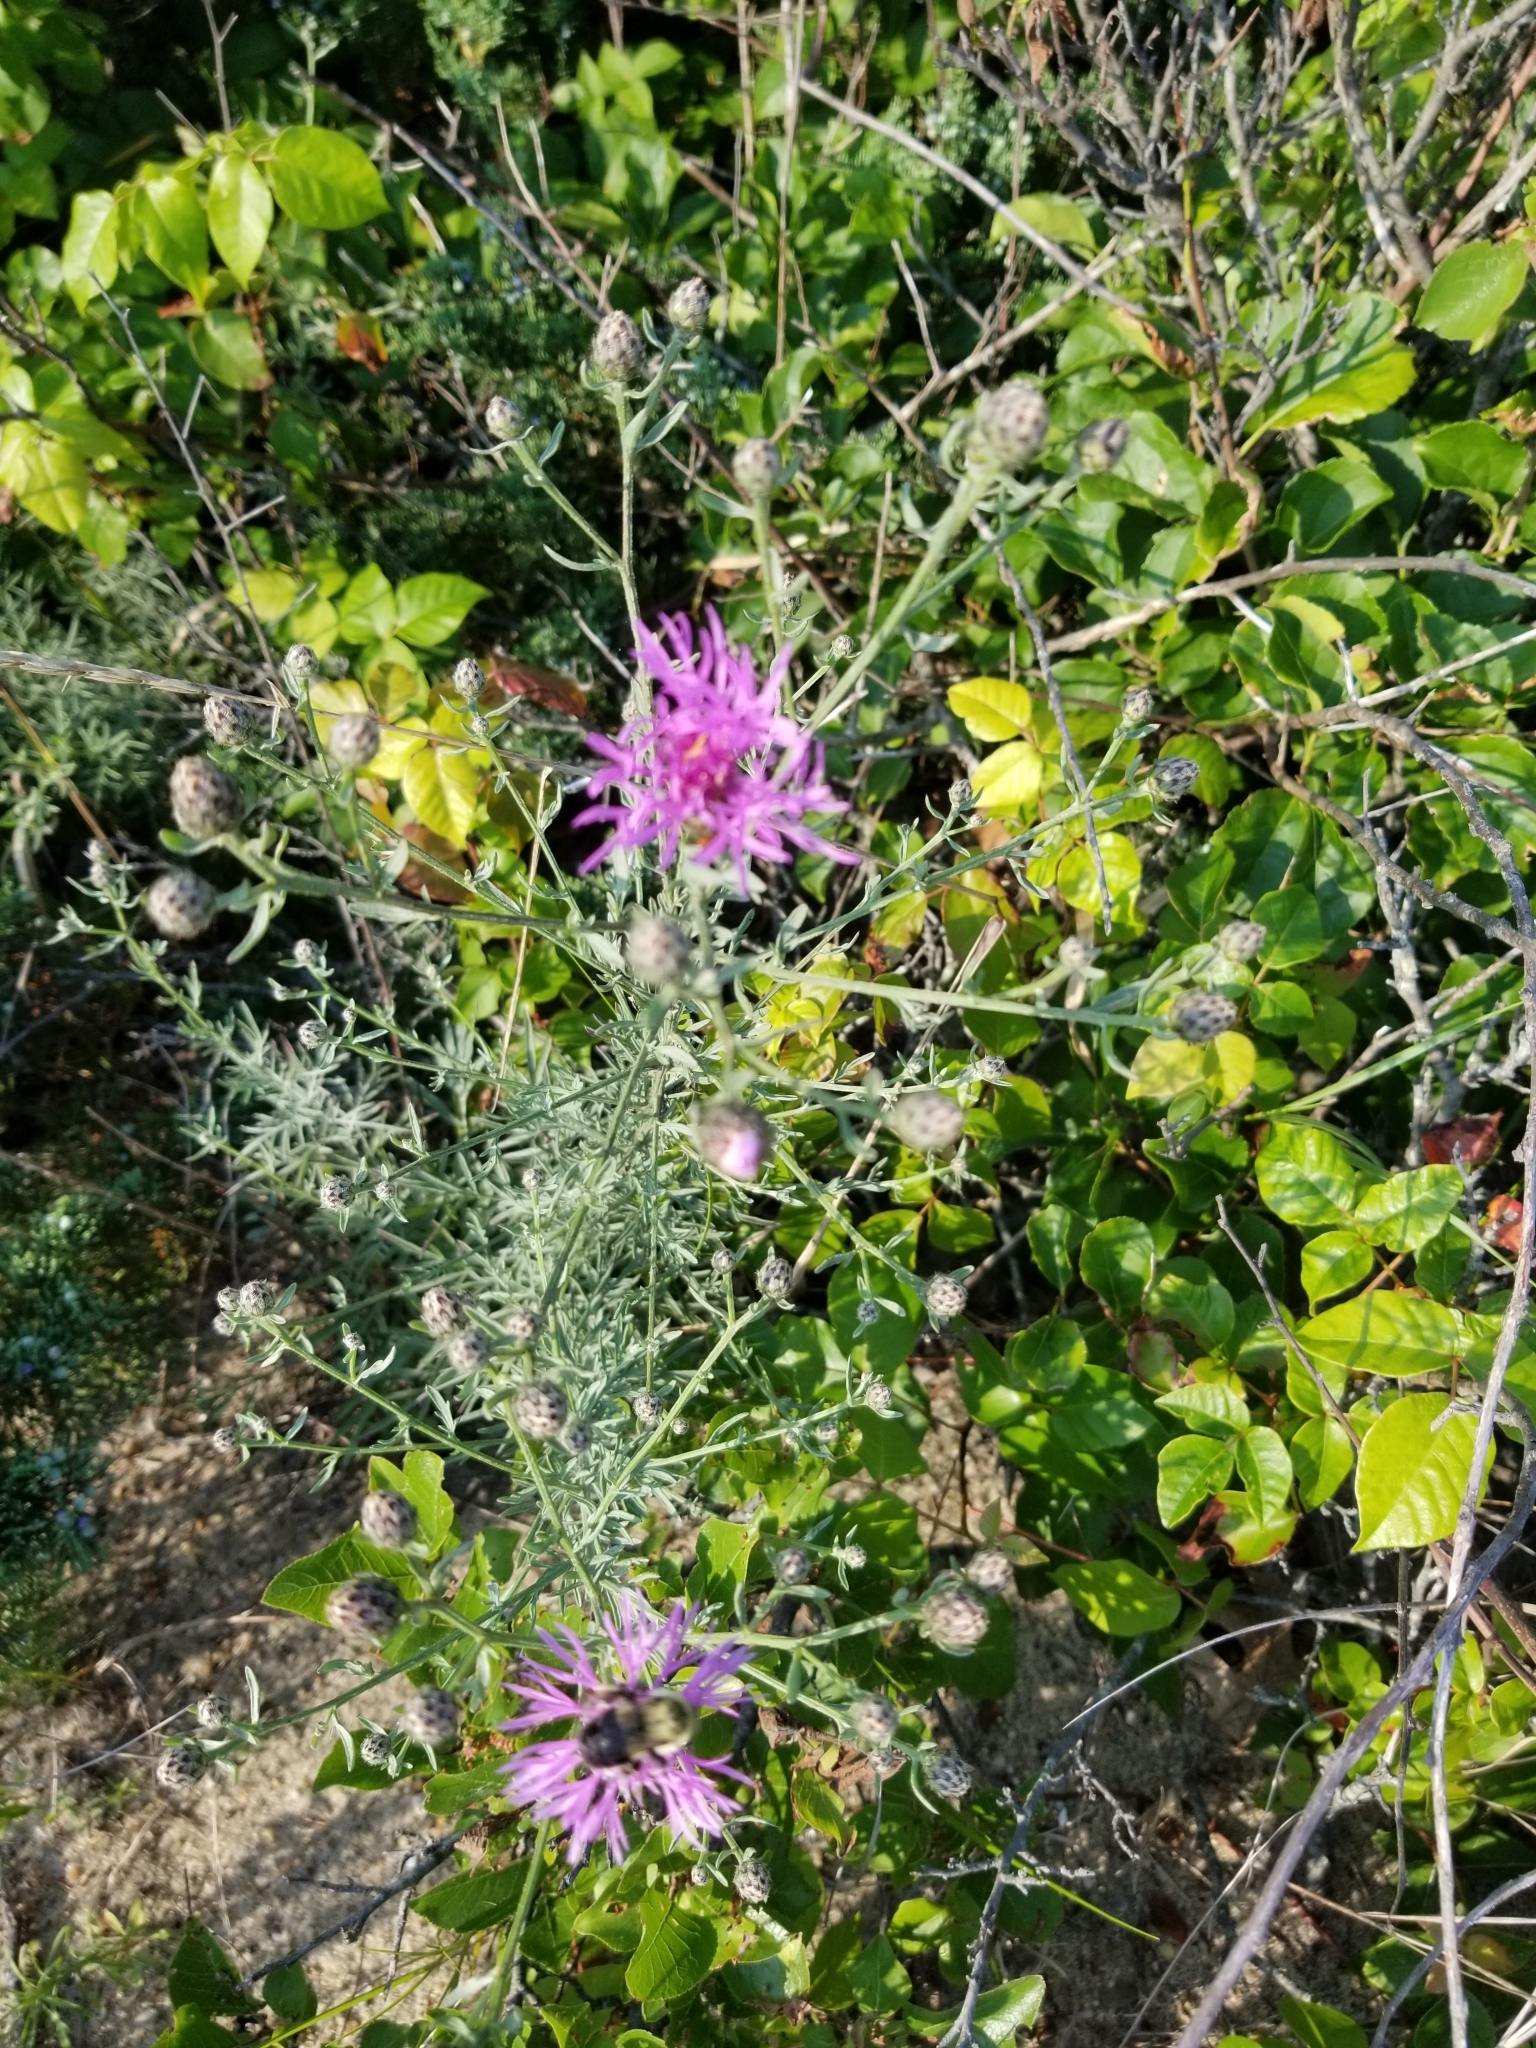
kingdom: Plantae
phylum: Tracheophyta
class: Magnoliopsida
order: Asterales
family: Asteraceae
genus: Centaurea
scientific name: Centaurea stoebe
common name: Spotted knapweed
